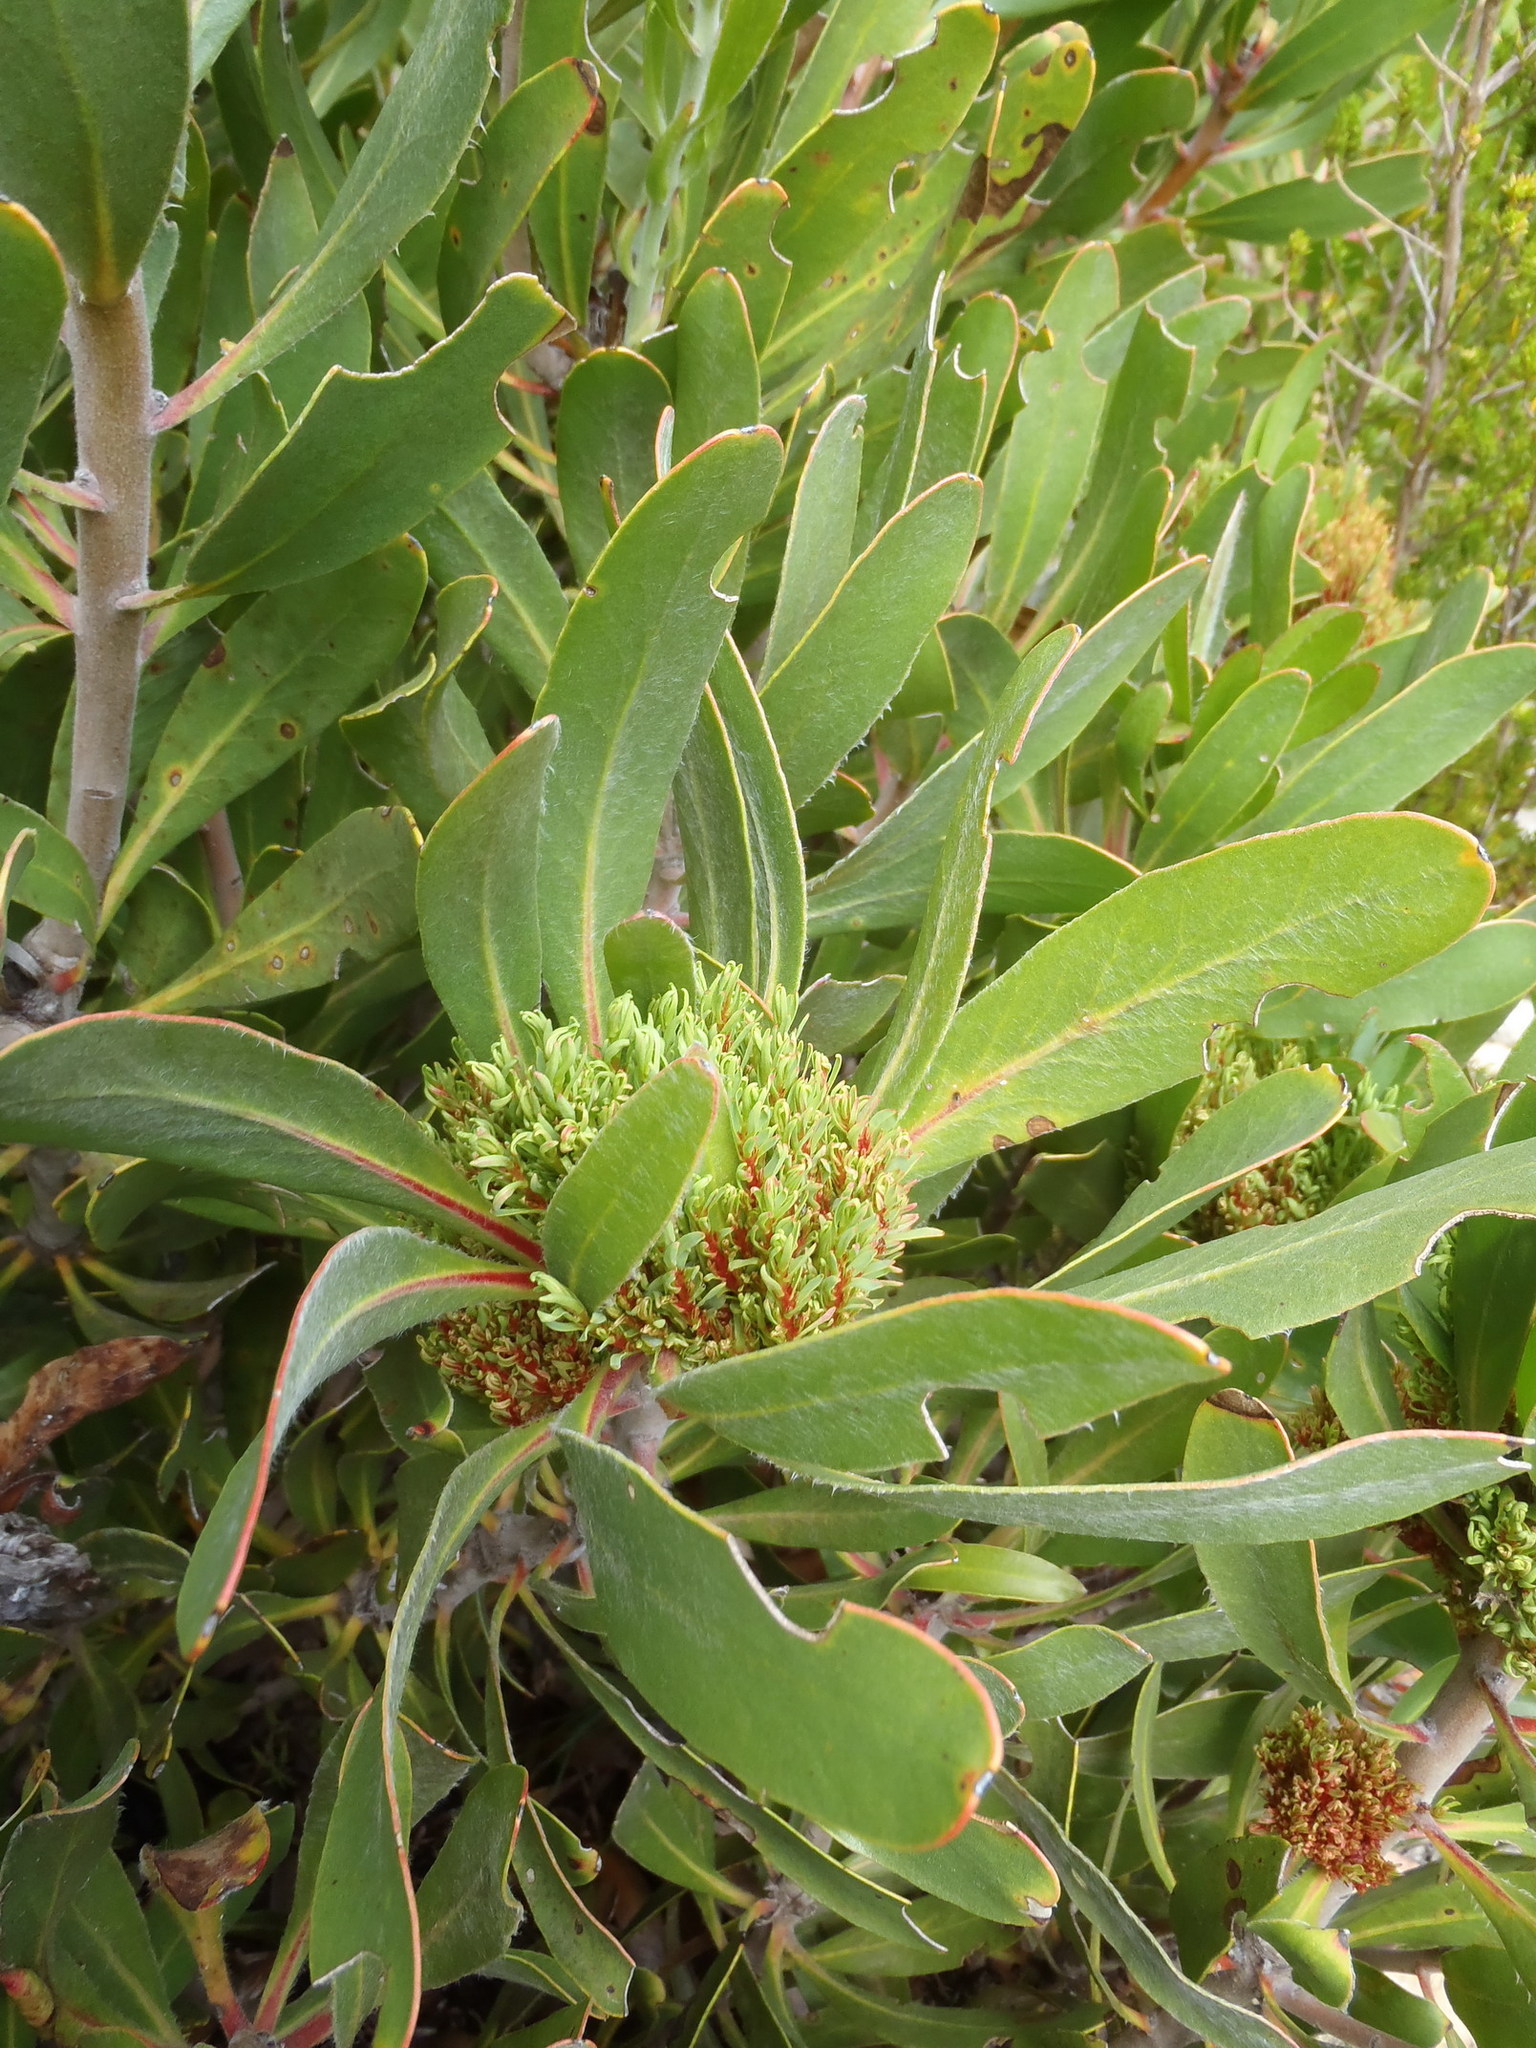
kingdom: Bacteria
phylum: Firmicutes
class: Bacilli
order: Acholeplasmatales
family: Acholeplasmataceae
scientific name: Acholeplasmataceae
